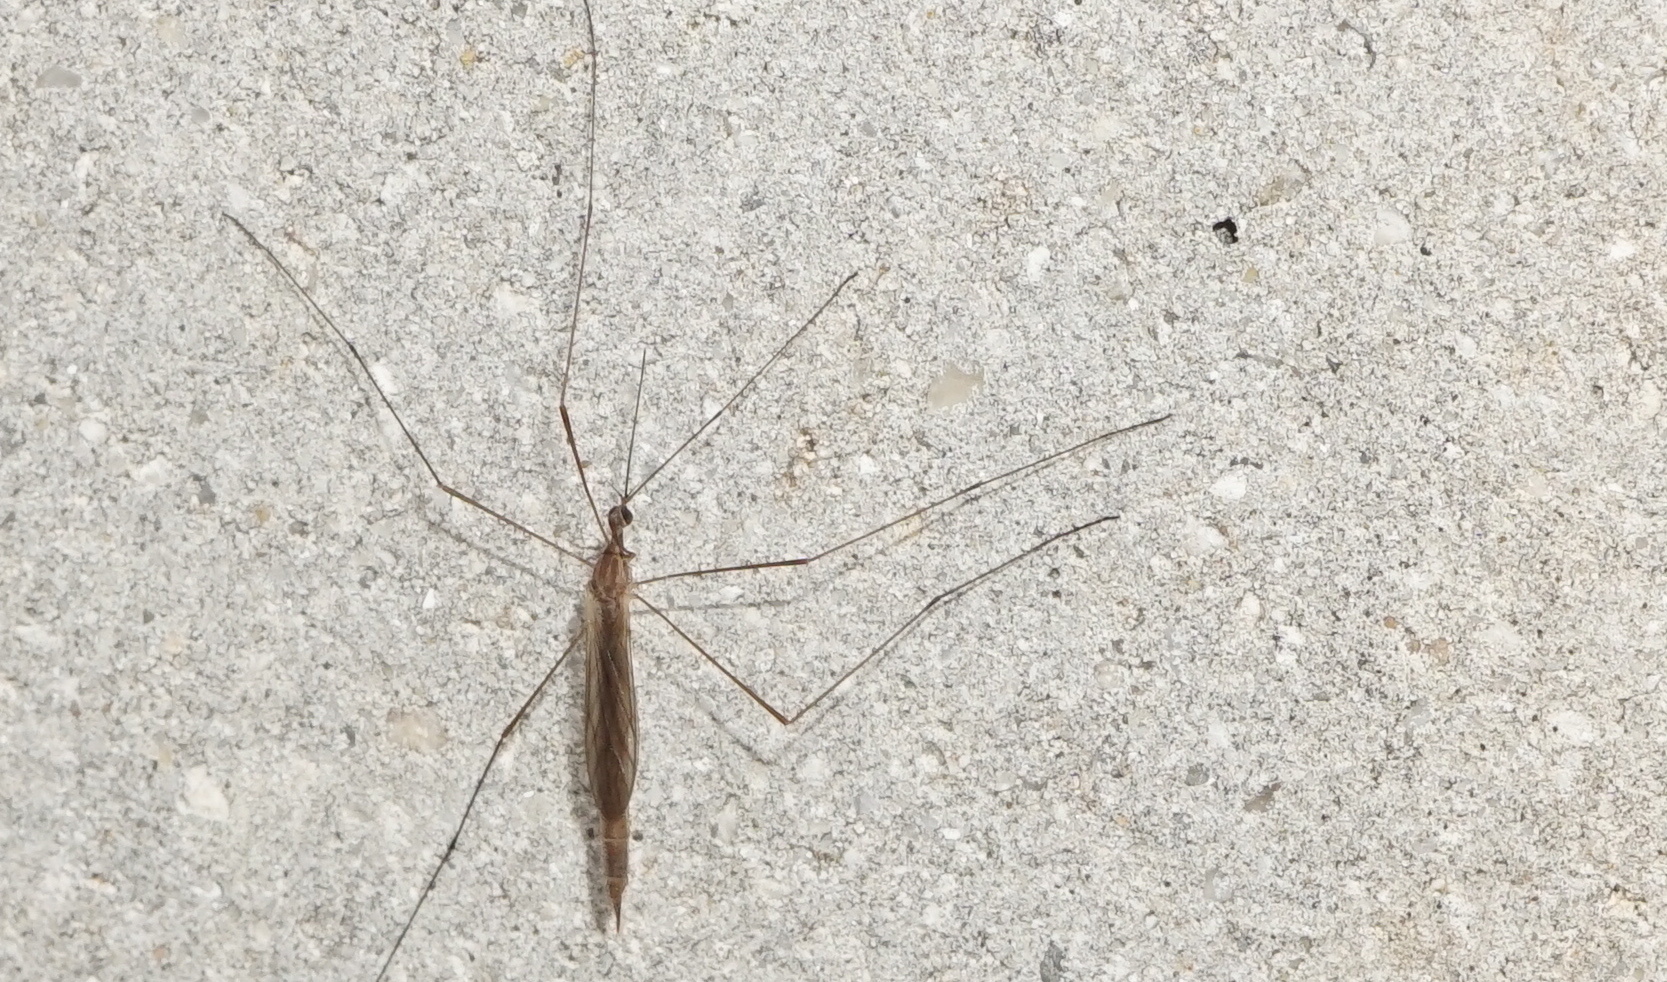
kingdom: Animalia
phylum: Arthropoda
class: Insecta
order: Diptera
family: Limoniidae
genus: Toxorhina
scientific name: Toxorhina magna
